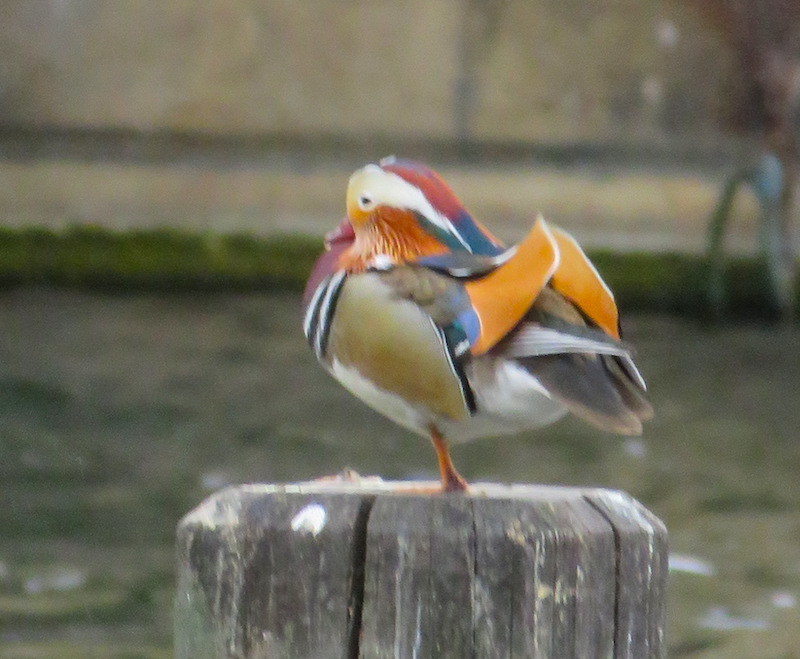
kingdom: Animalia
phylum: Chordata
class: Aves
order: Anseriformes
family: Anatidae
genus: Aix
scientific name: Aix galericulata
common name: Mandarin duck
